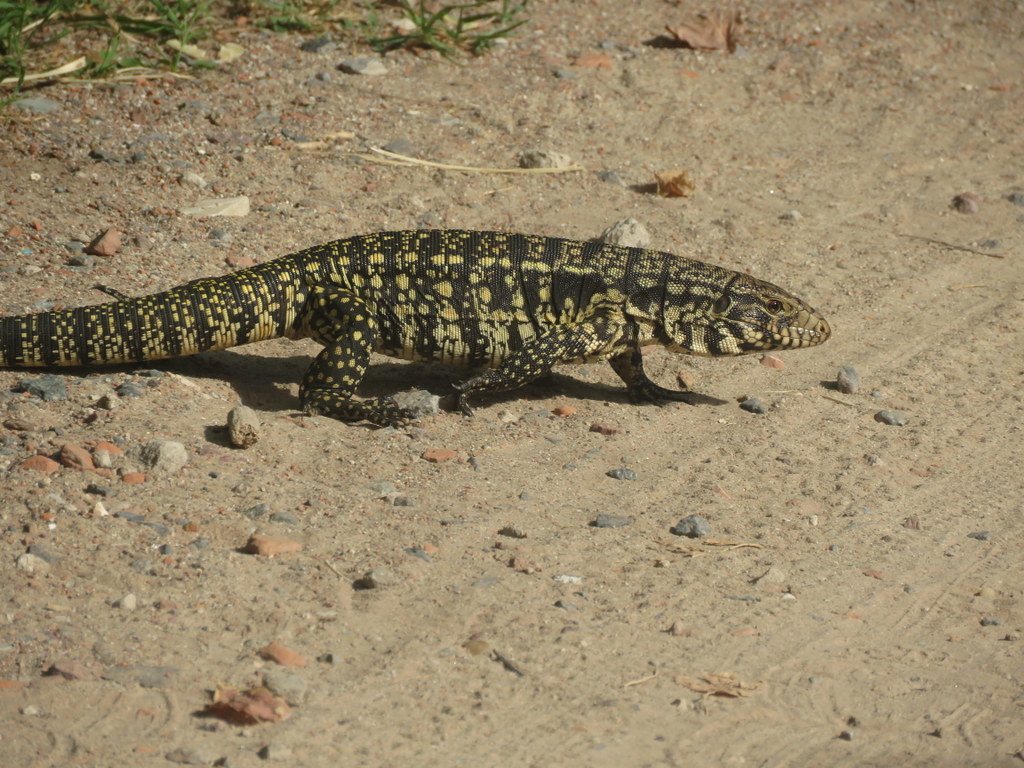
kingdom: Animalia
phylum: Chordata
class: Squamata
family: Teiidae
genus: Salvator
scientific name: Salvator merianae
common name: Argentine black and white tegu
